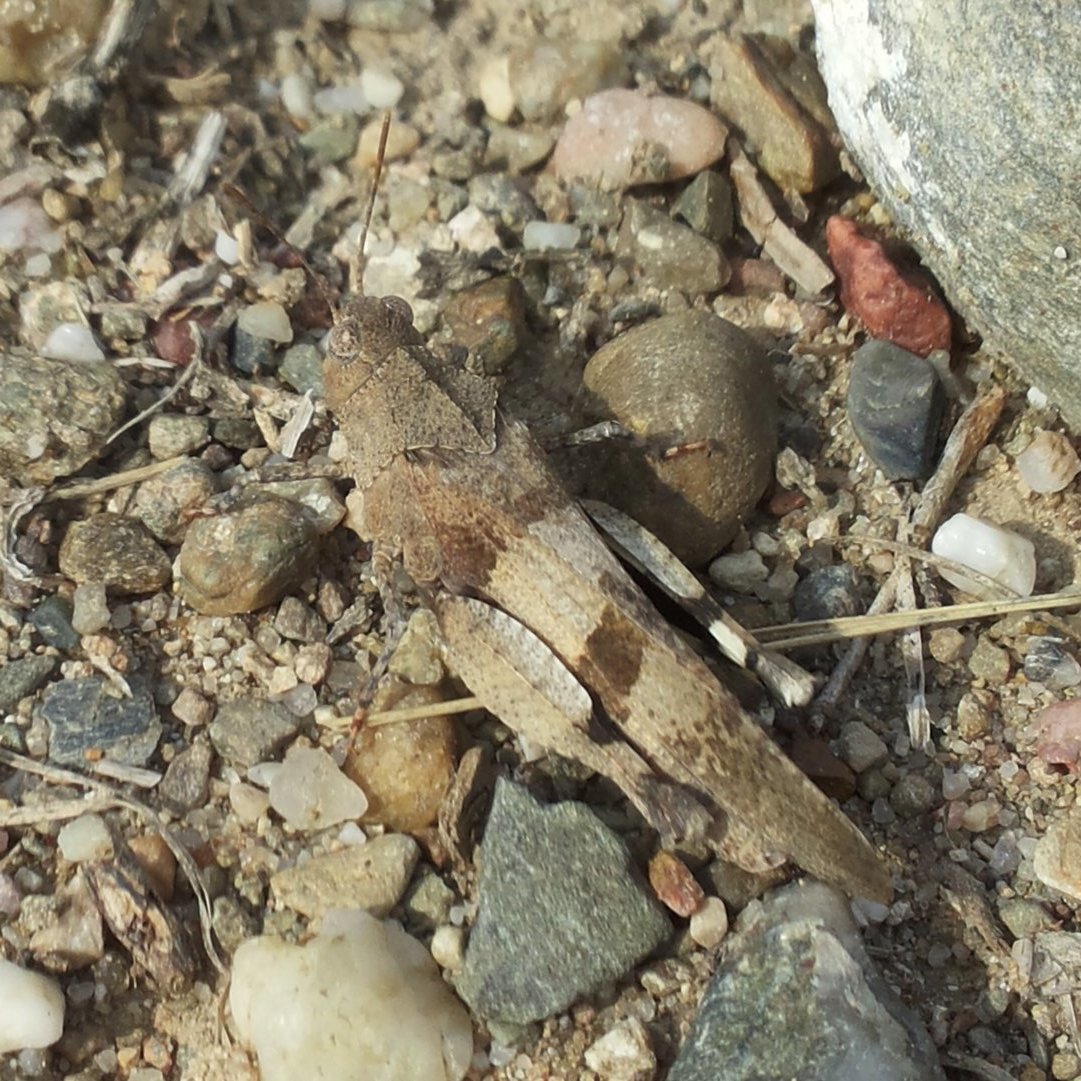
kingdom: Animalia
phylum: Arthropoda
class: Insecta
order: Orthoptera
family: Acrididae
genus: Oedipoda
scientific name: Oedipoda caerulescens
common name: Blue-winged grasshopper
